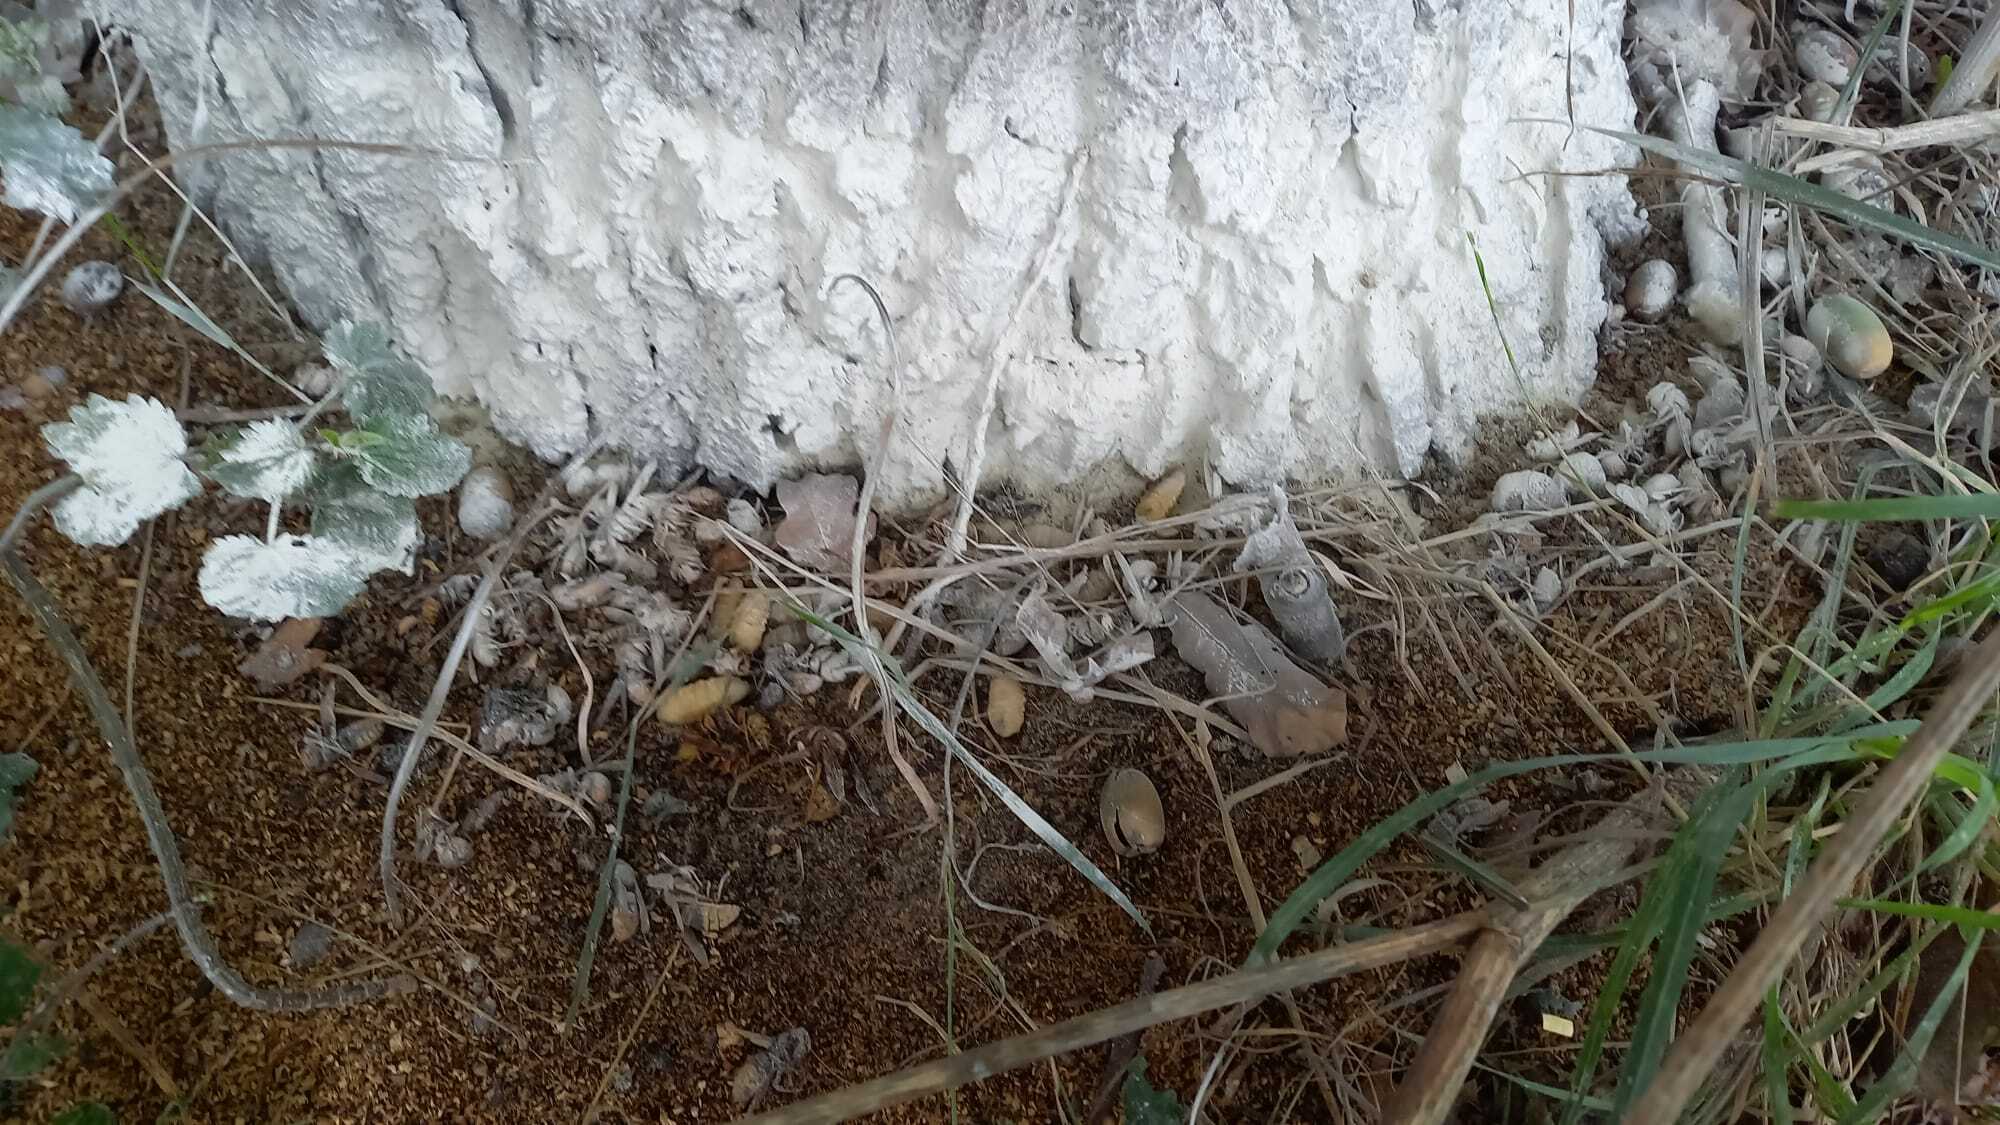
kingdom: Animalia
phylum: Arthropoda
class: Insecta
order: Hymenoptera
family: Vespidae
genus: Vespa
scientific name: Vespa velutina
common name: Asian hornet
